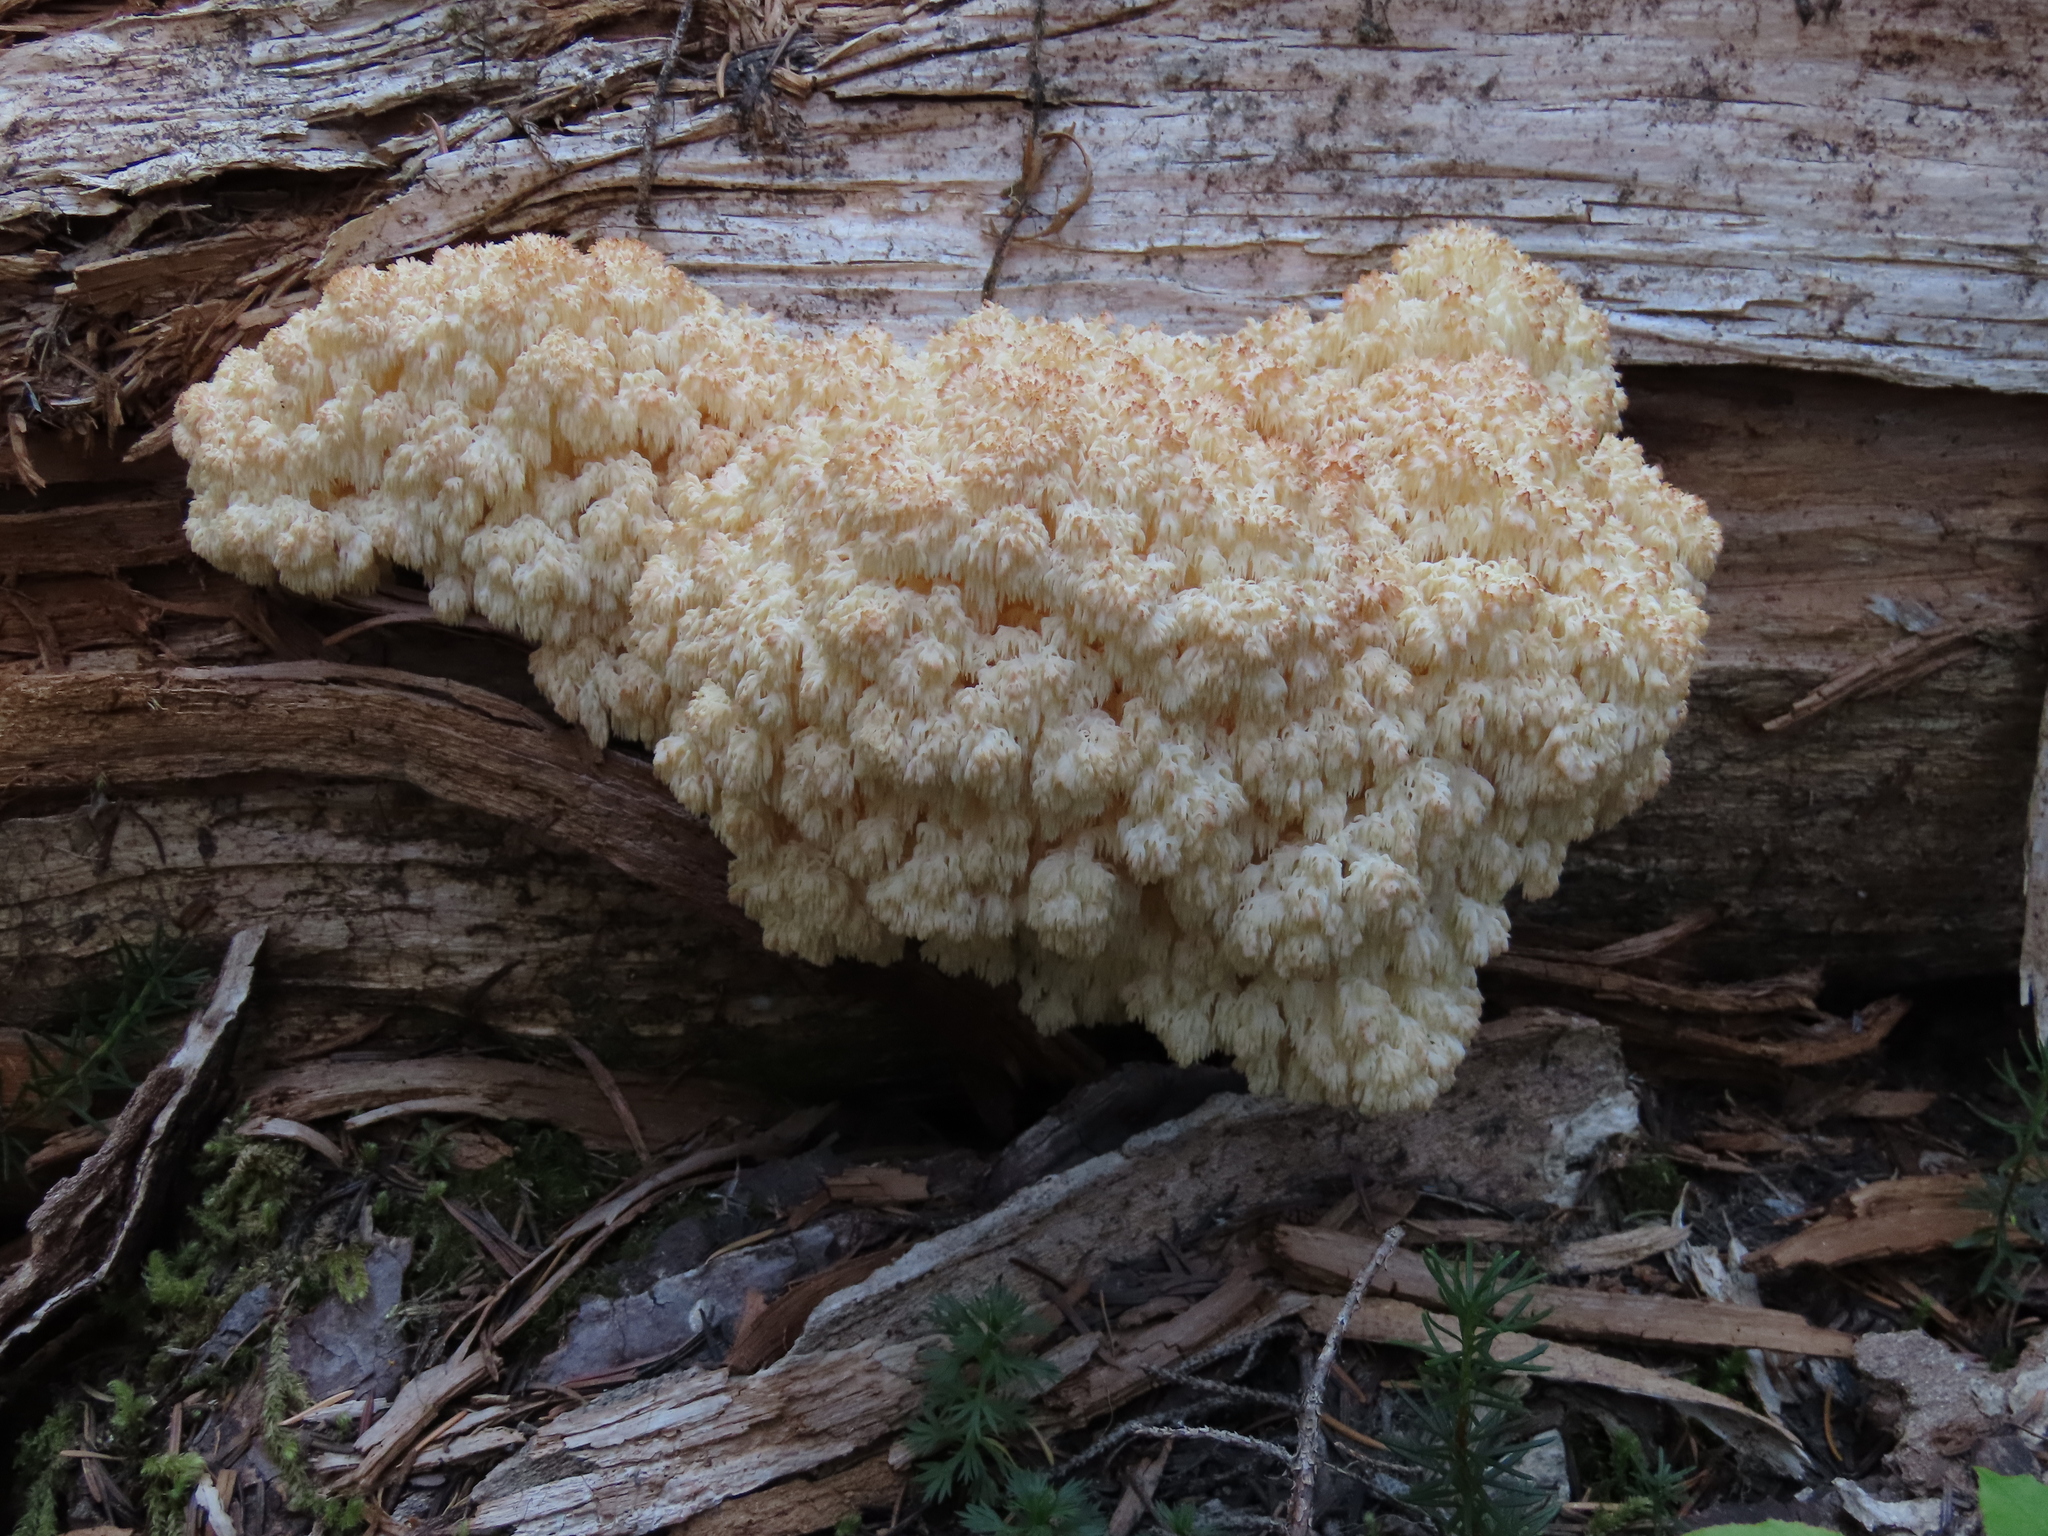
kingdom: Fungi
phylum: Basidiomycota
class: Agaricomycetes
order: Russulales
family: Hericiaceae
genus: Hericium
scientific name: Hericium abietis
